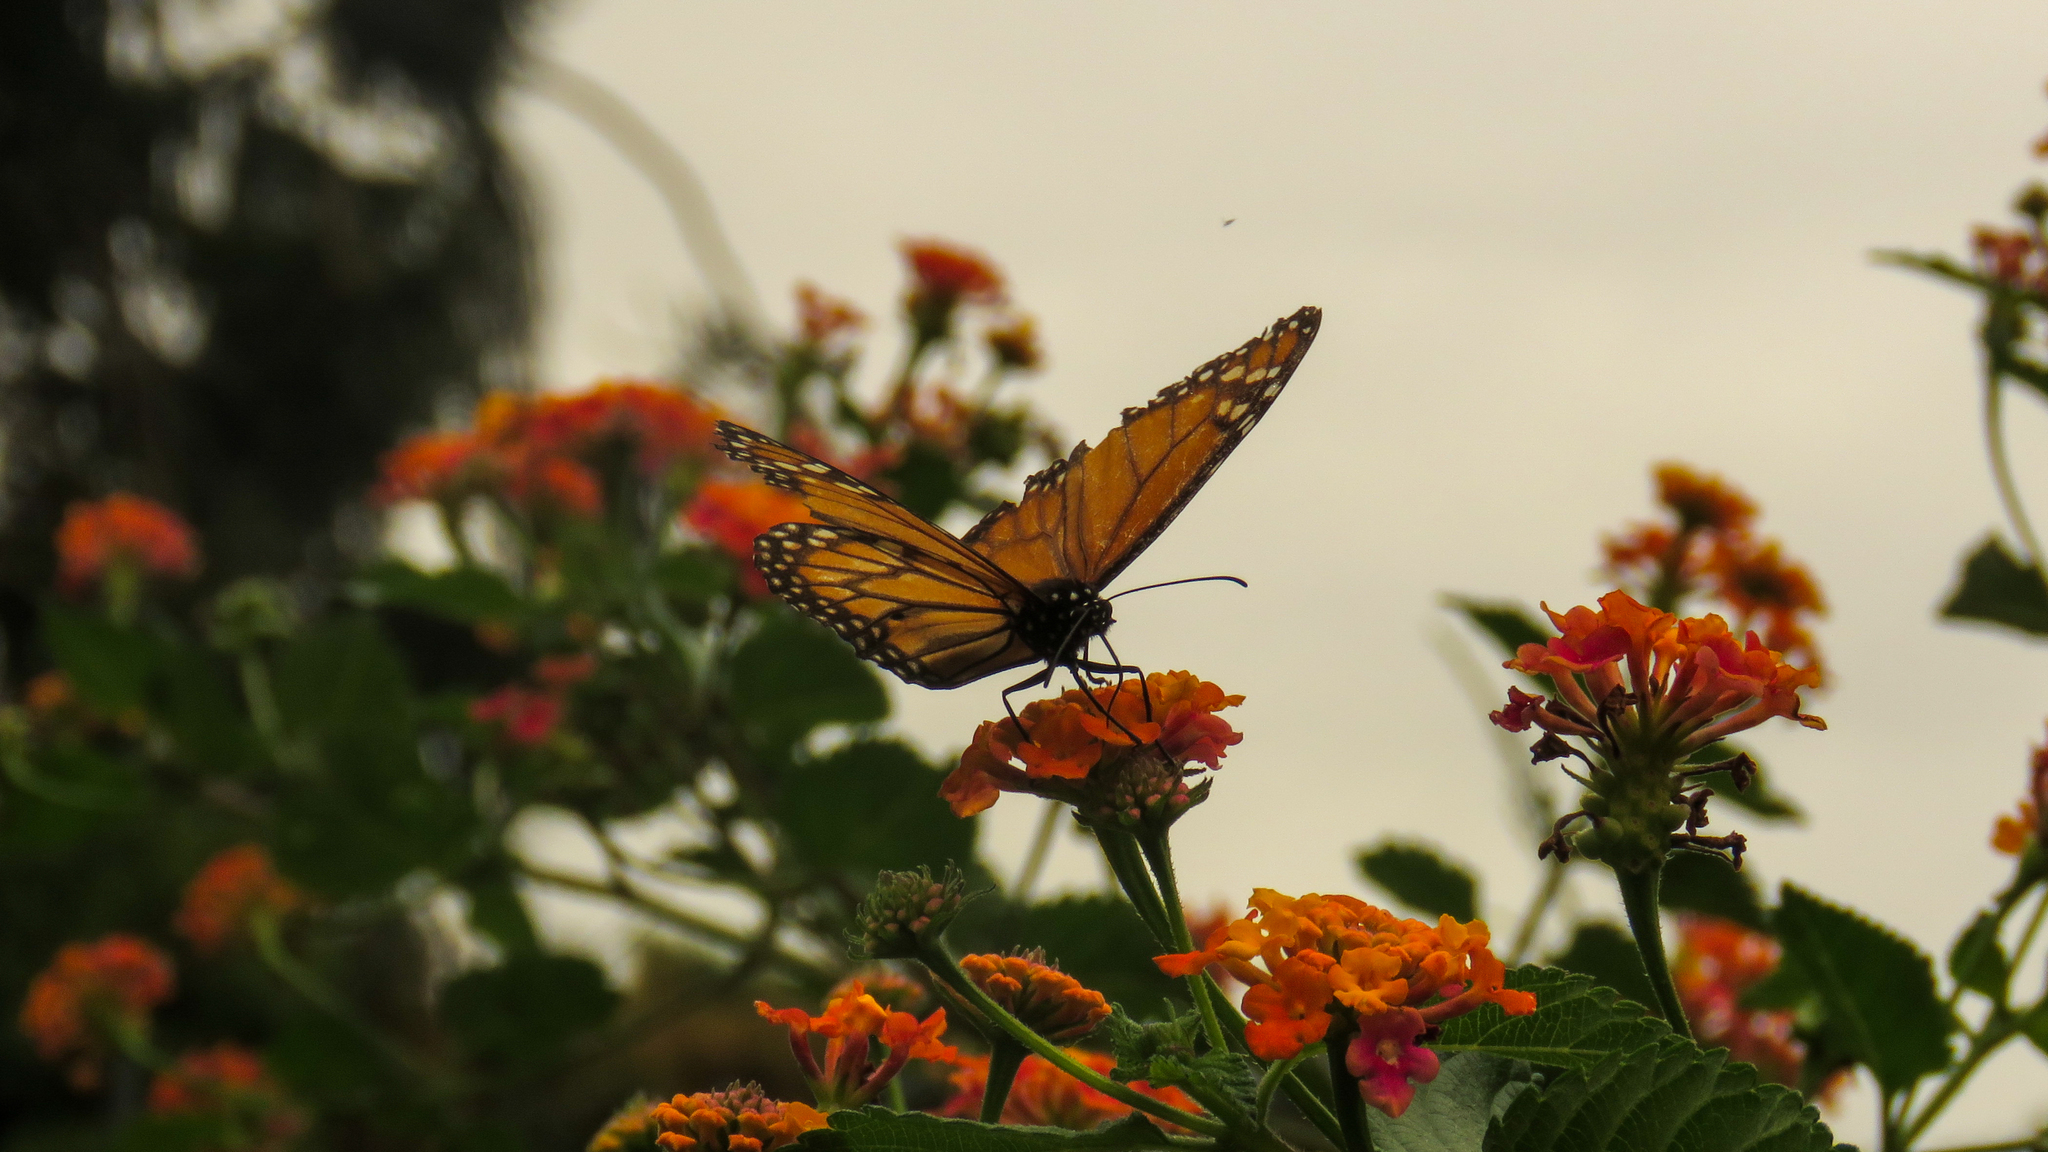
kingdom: Animalia
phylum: Arthropoda
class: Insecta
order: Lepidoptera
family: Nymphalidae
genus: Danaus
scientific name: Danaus erippus
